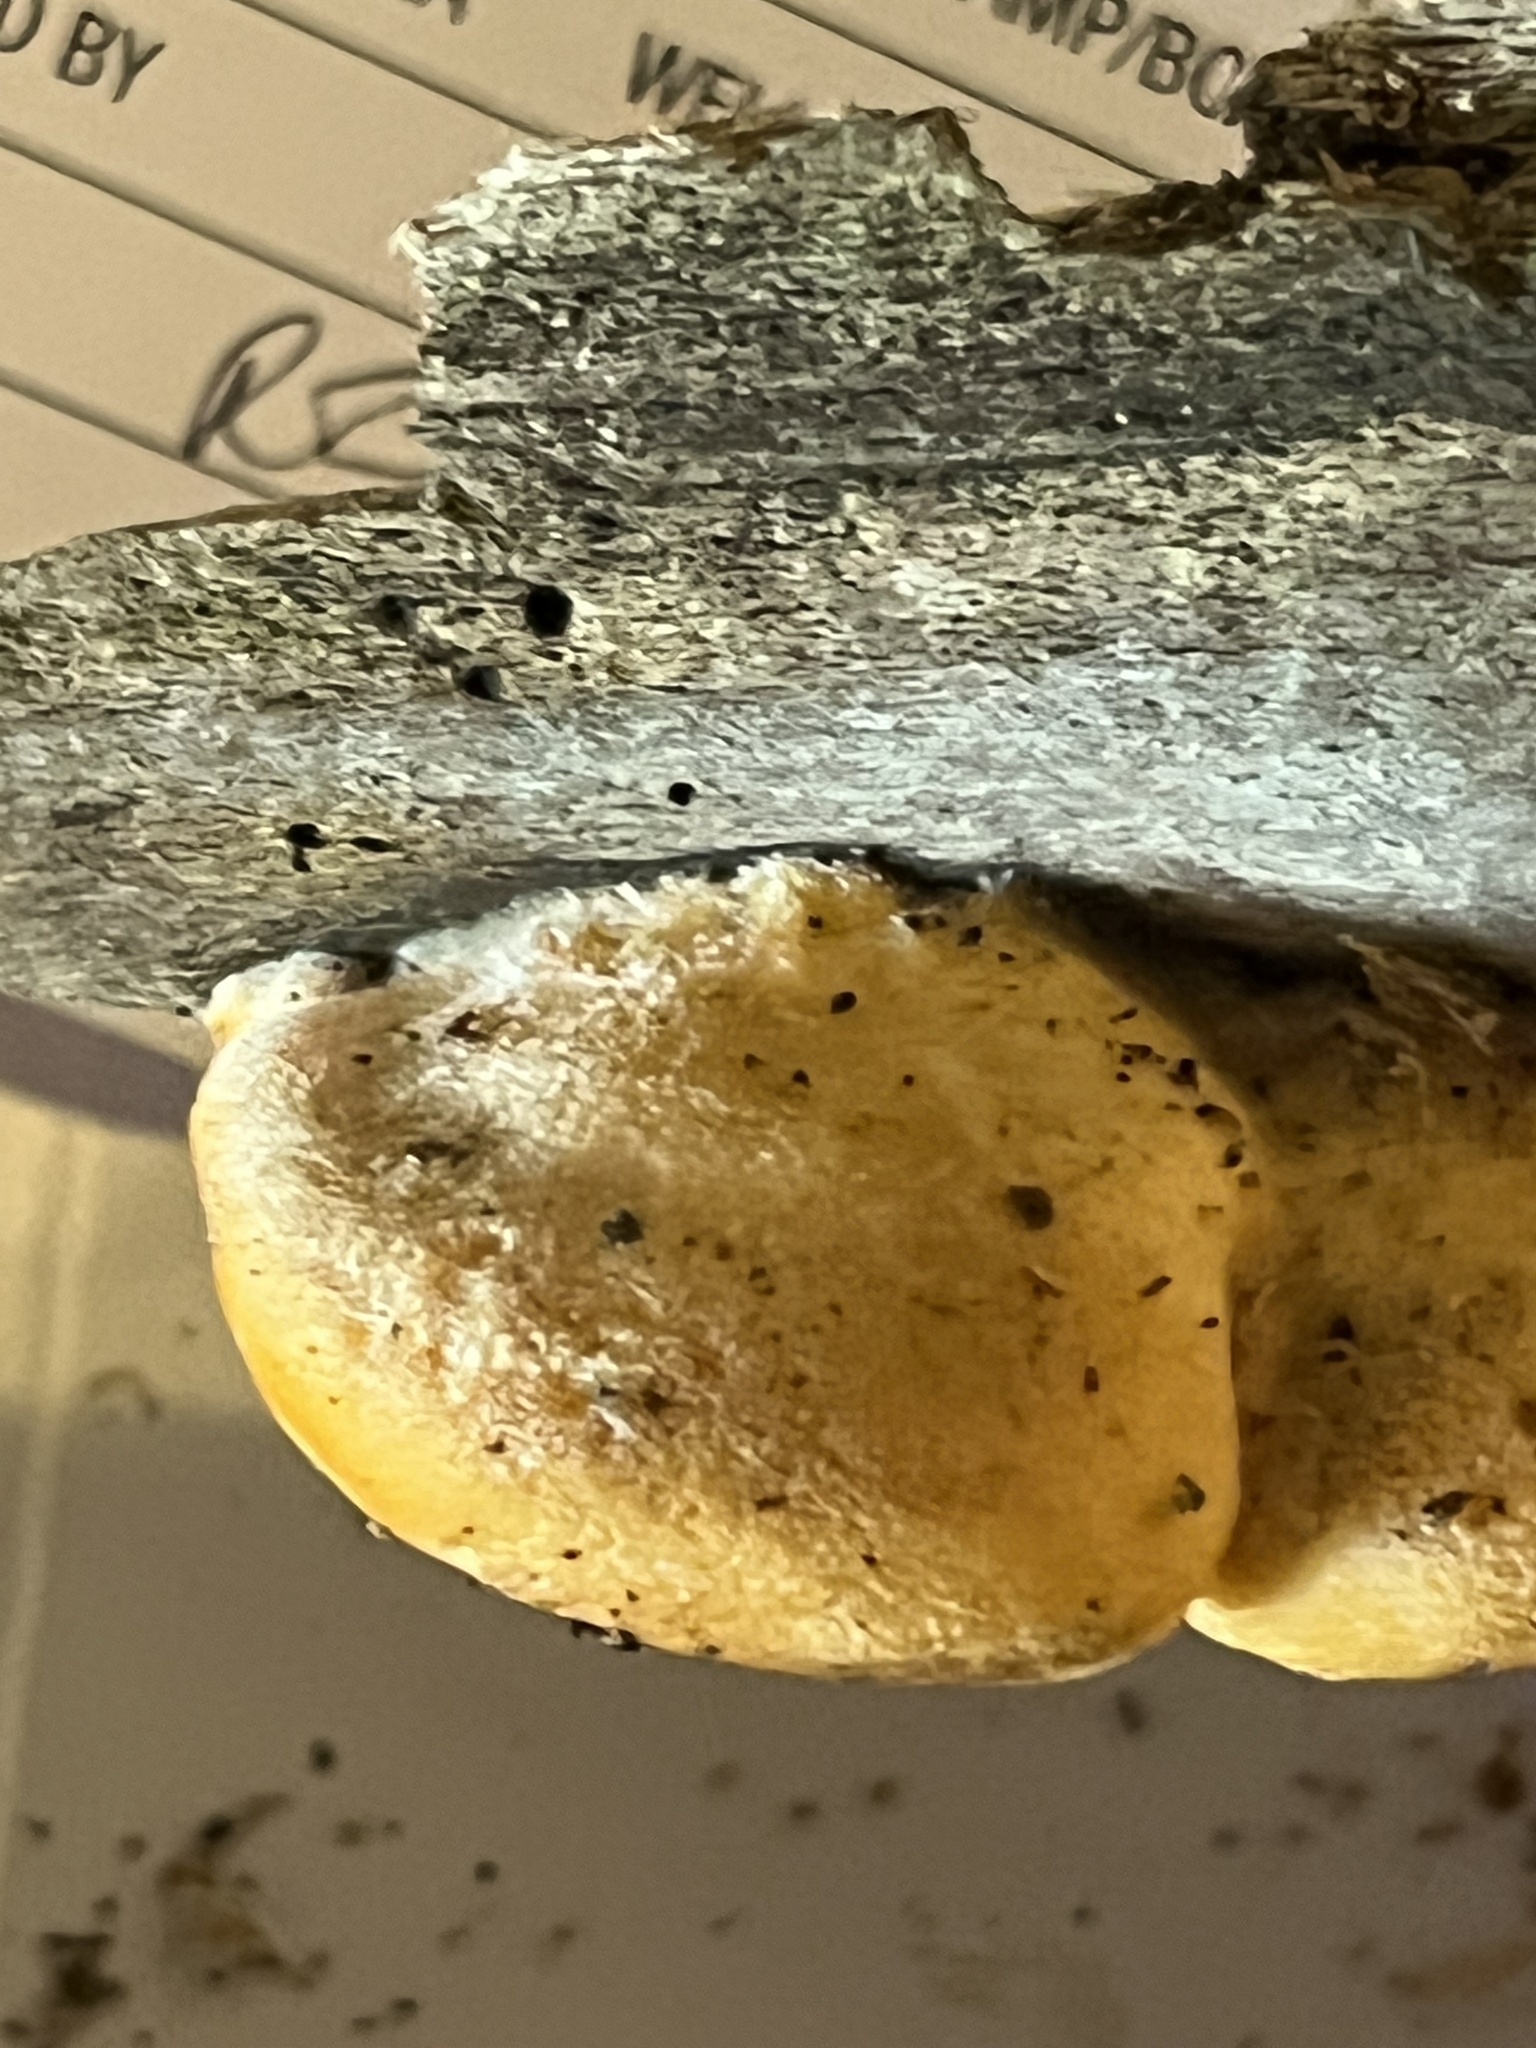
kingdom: Fungi
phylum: Basidiomycota
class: Agaricomycetes
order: Agaricales
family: Phyllotopsidaceae
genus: Phyllotopsis
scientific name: Phyllotopsis nidulans
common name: Orange mock oyster
